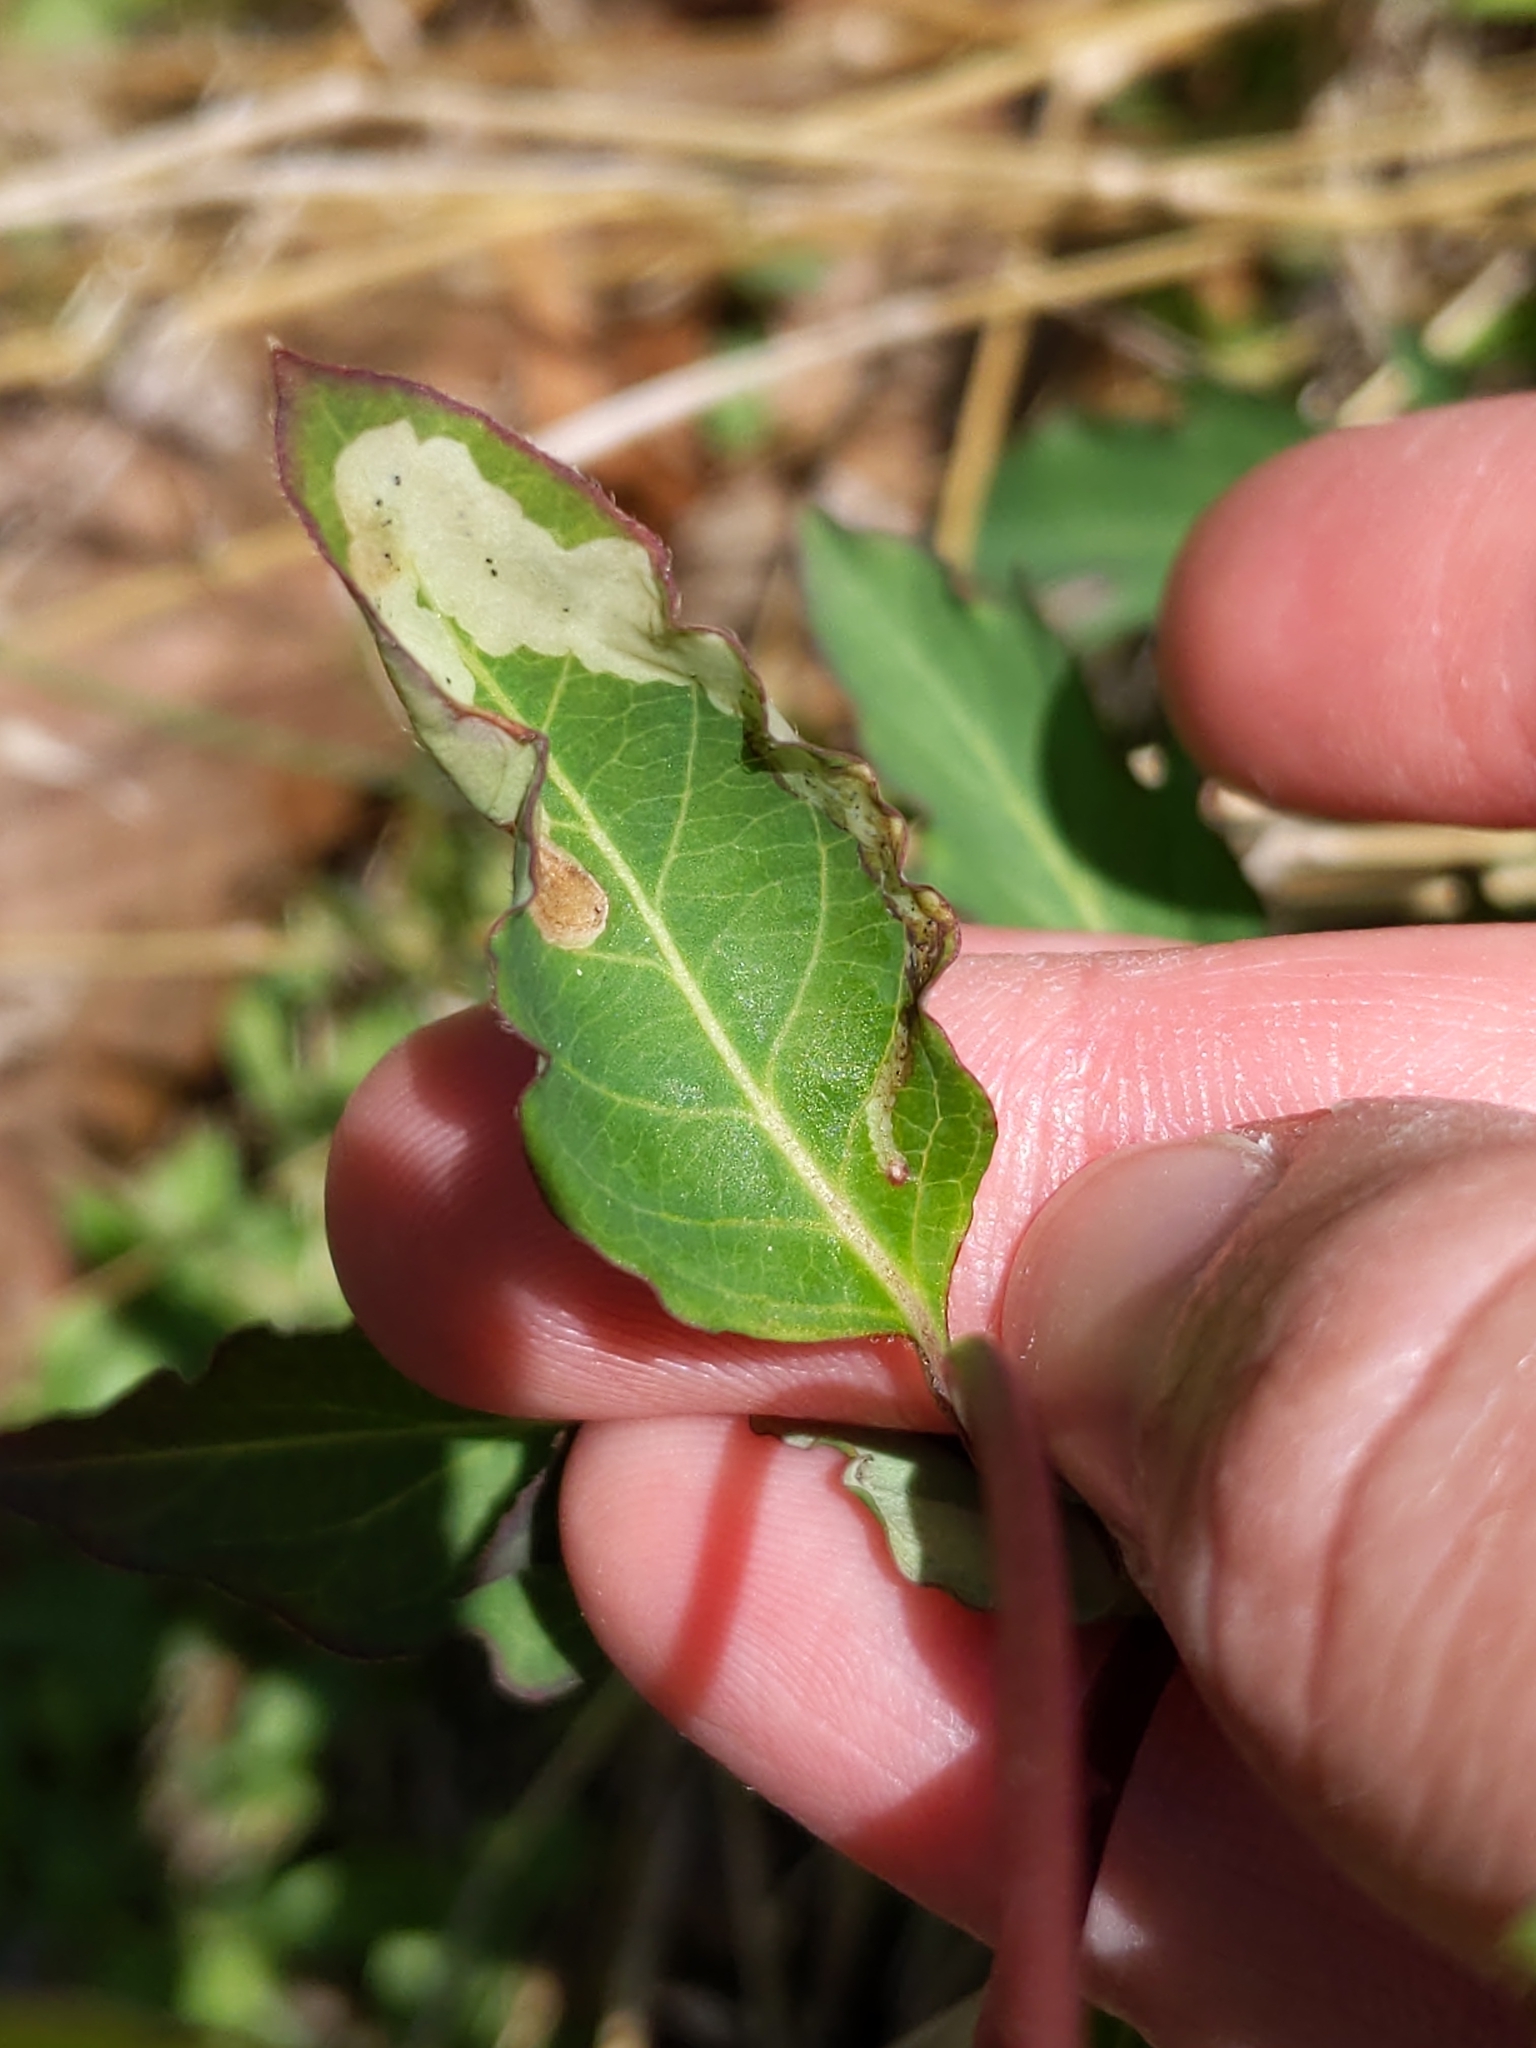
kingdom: Plantae
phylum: Tracheophyta
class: Magnoliopsida
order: Dipsacales
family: Caprifoliaceae
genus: Lonicera
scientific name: Lonicera japonica
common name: Japanese honeysuckle
